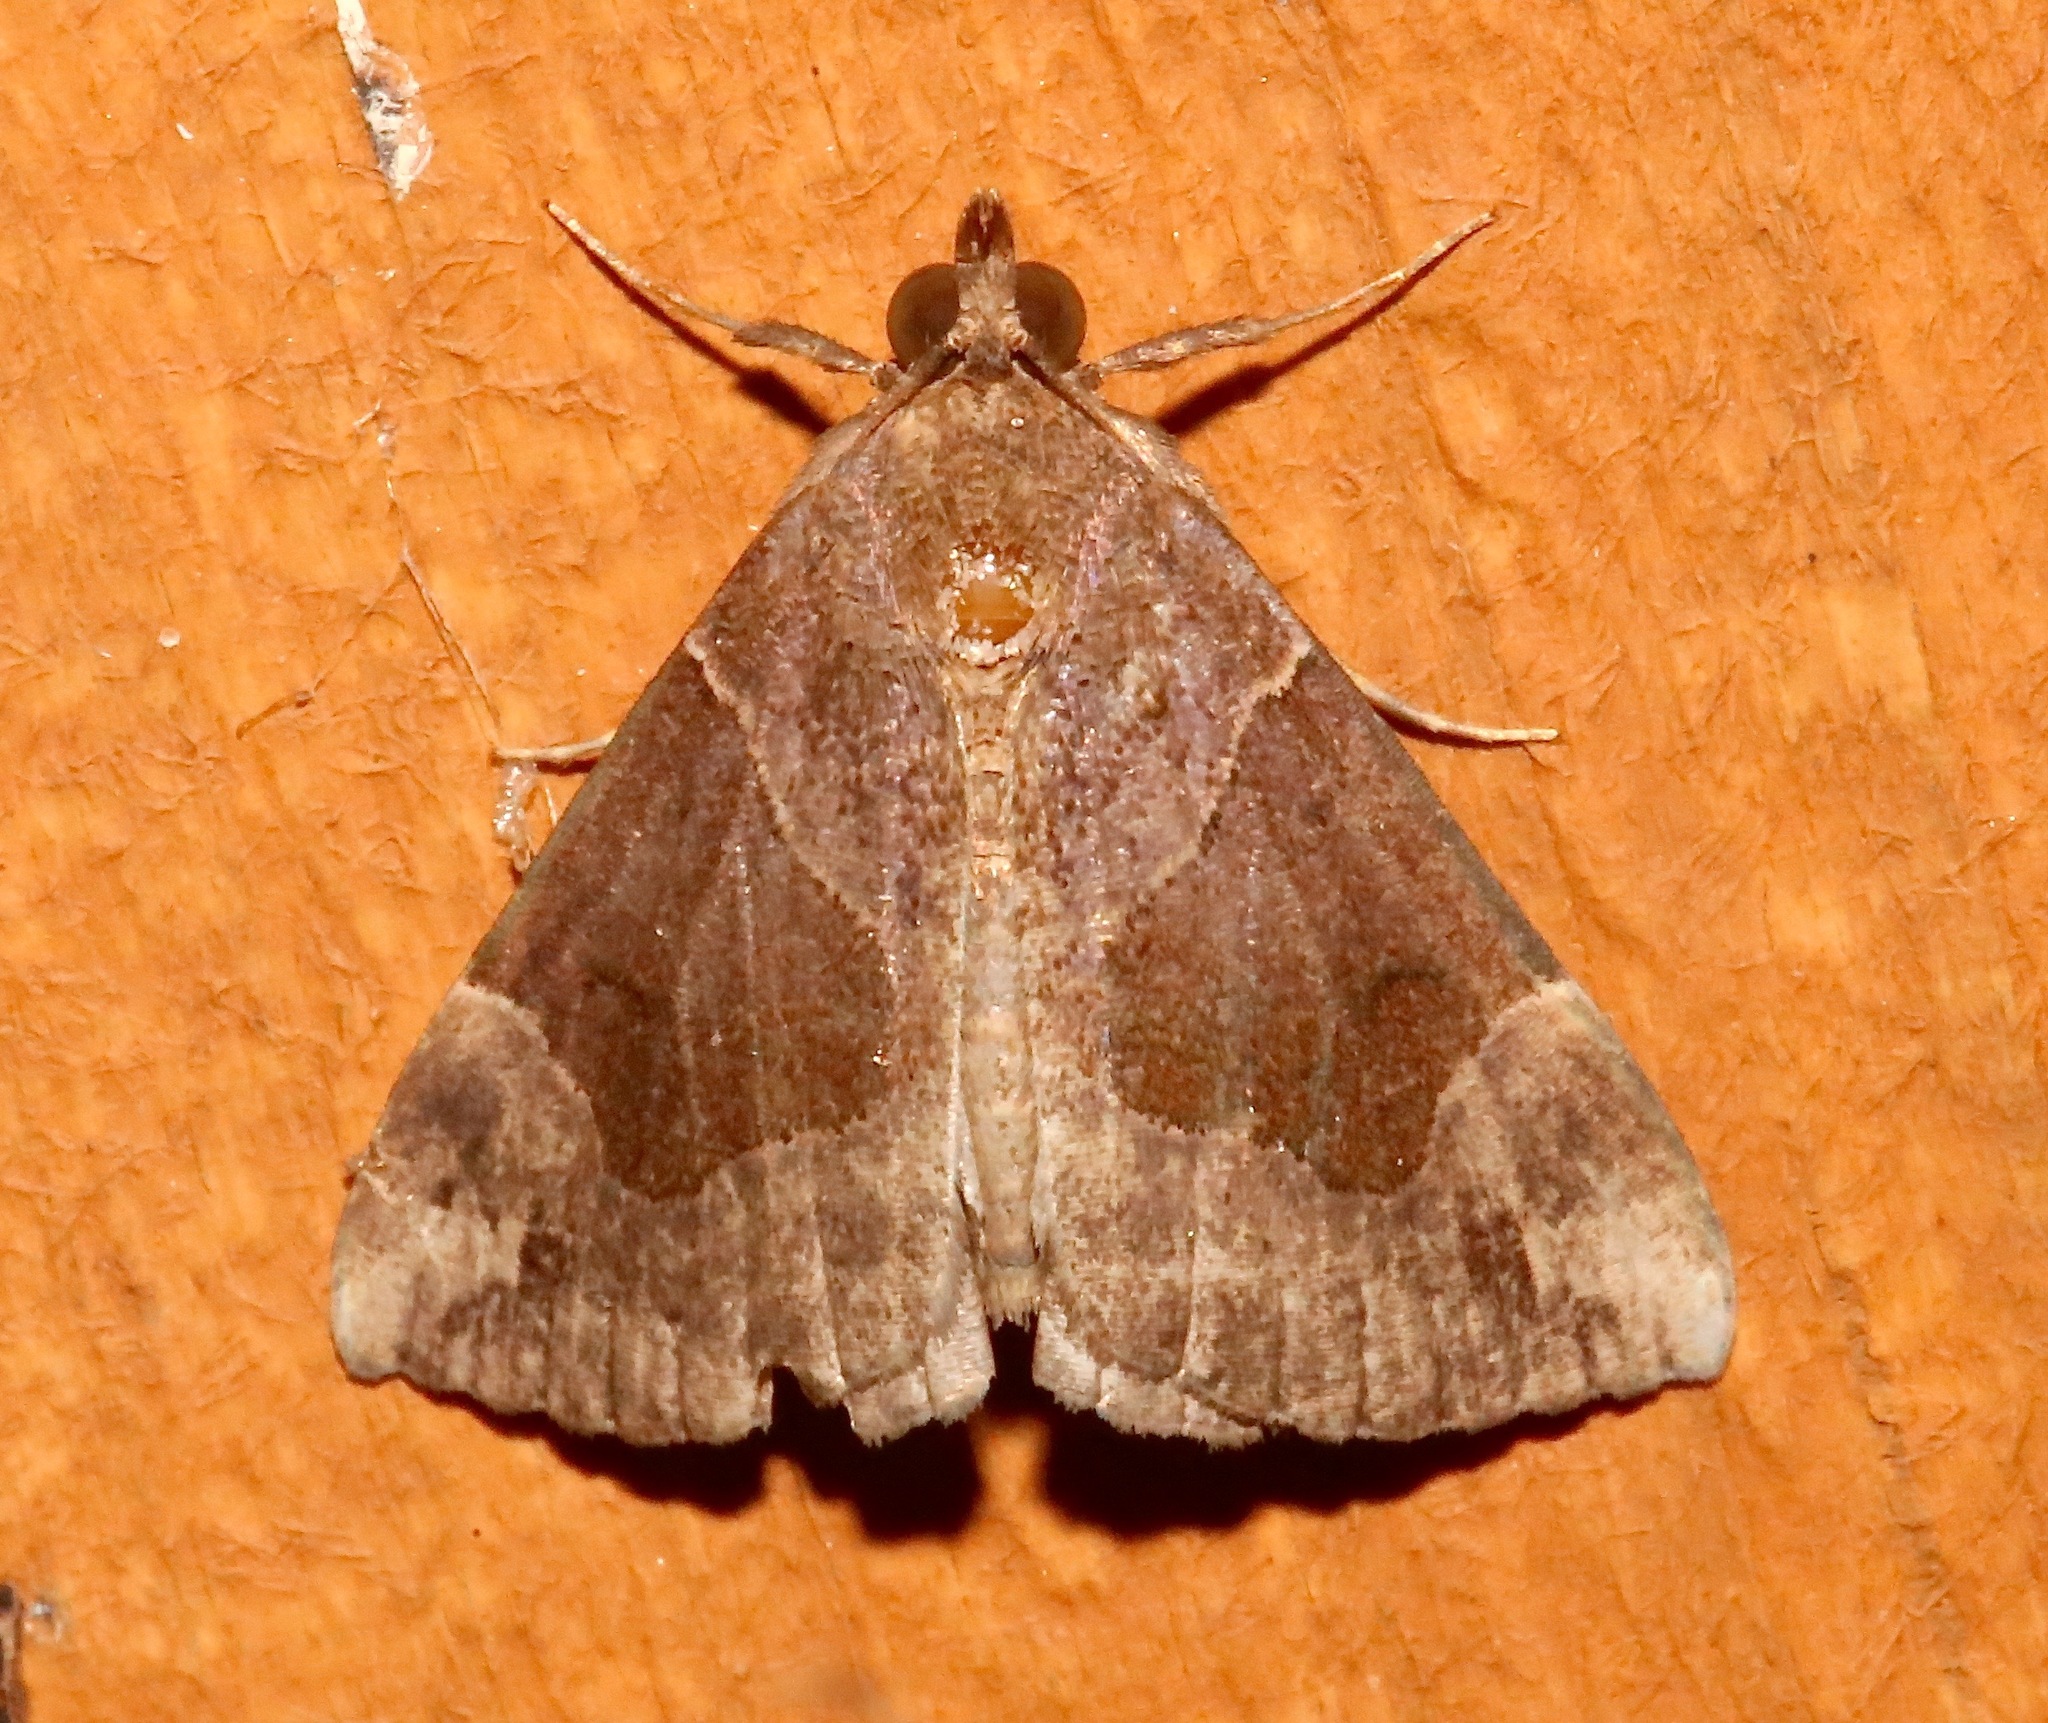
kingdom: Animalia
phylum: Arthropoda
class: Insecta
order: Lepidoptera
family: Erebidae
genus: Hypena
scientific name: Hypena manalis
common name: Flowing-line bomolocha moth
